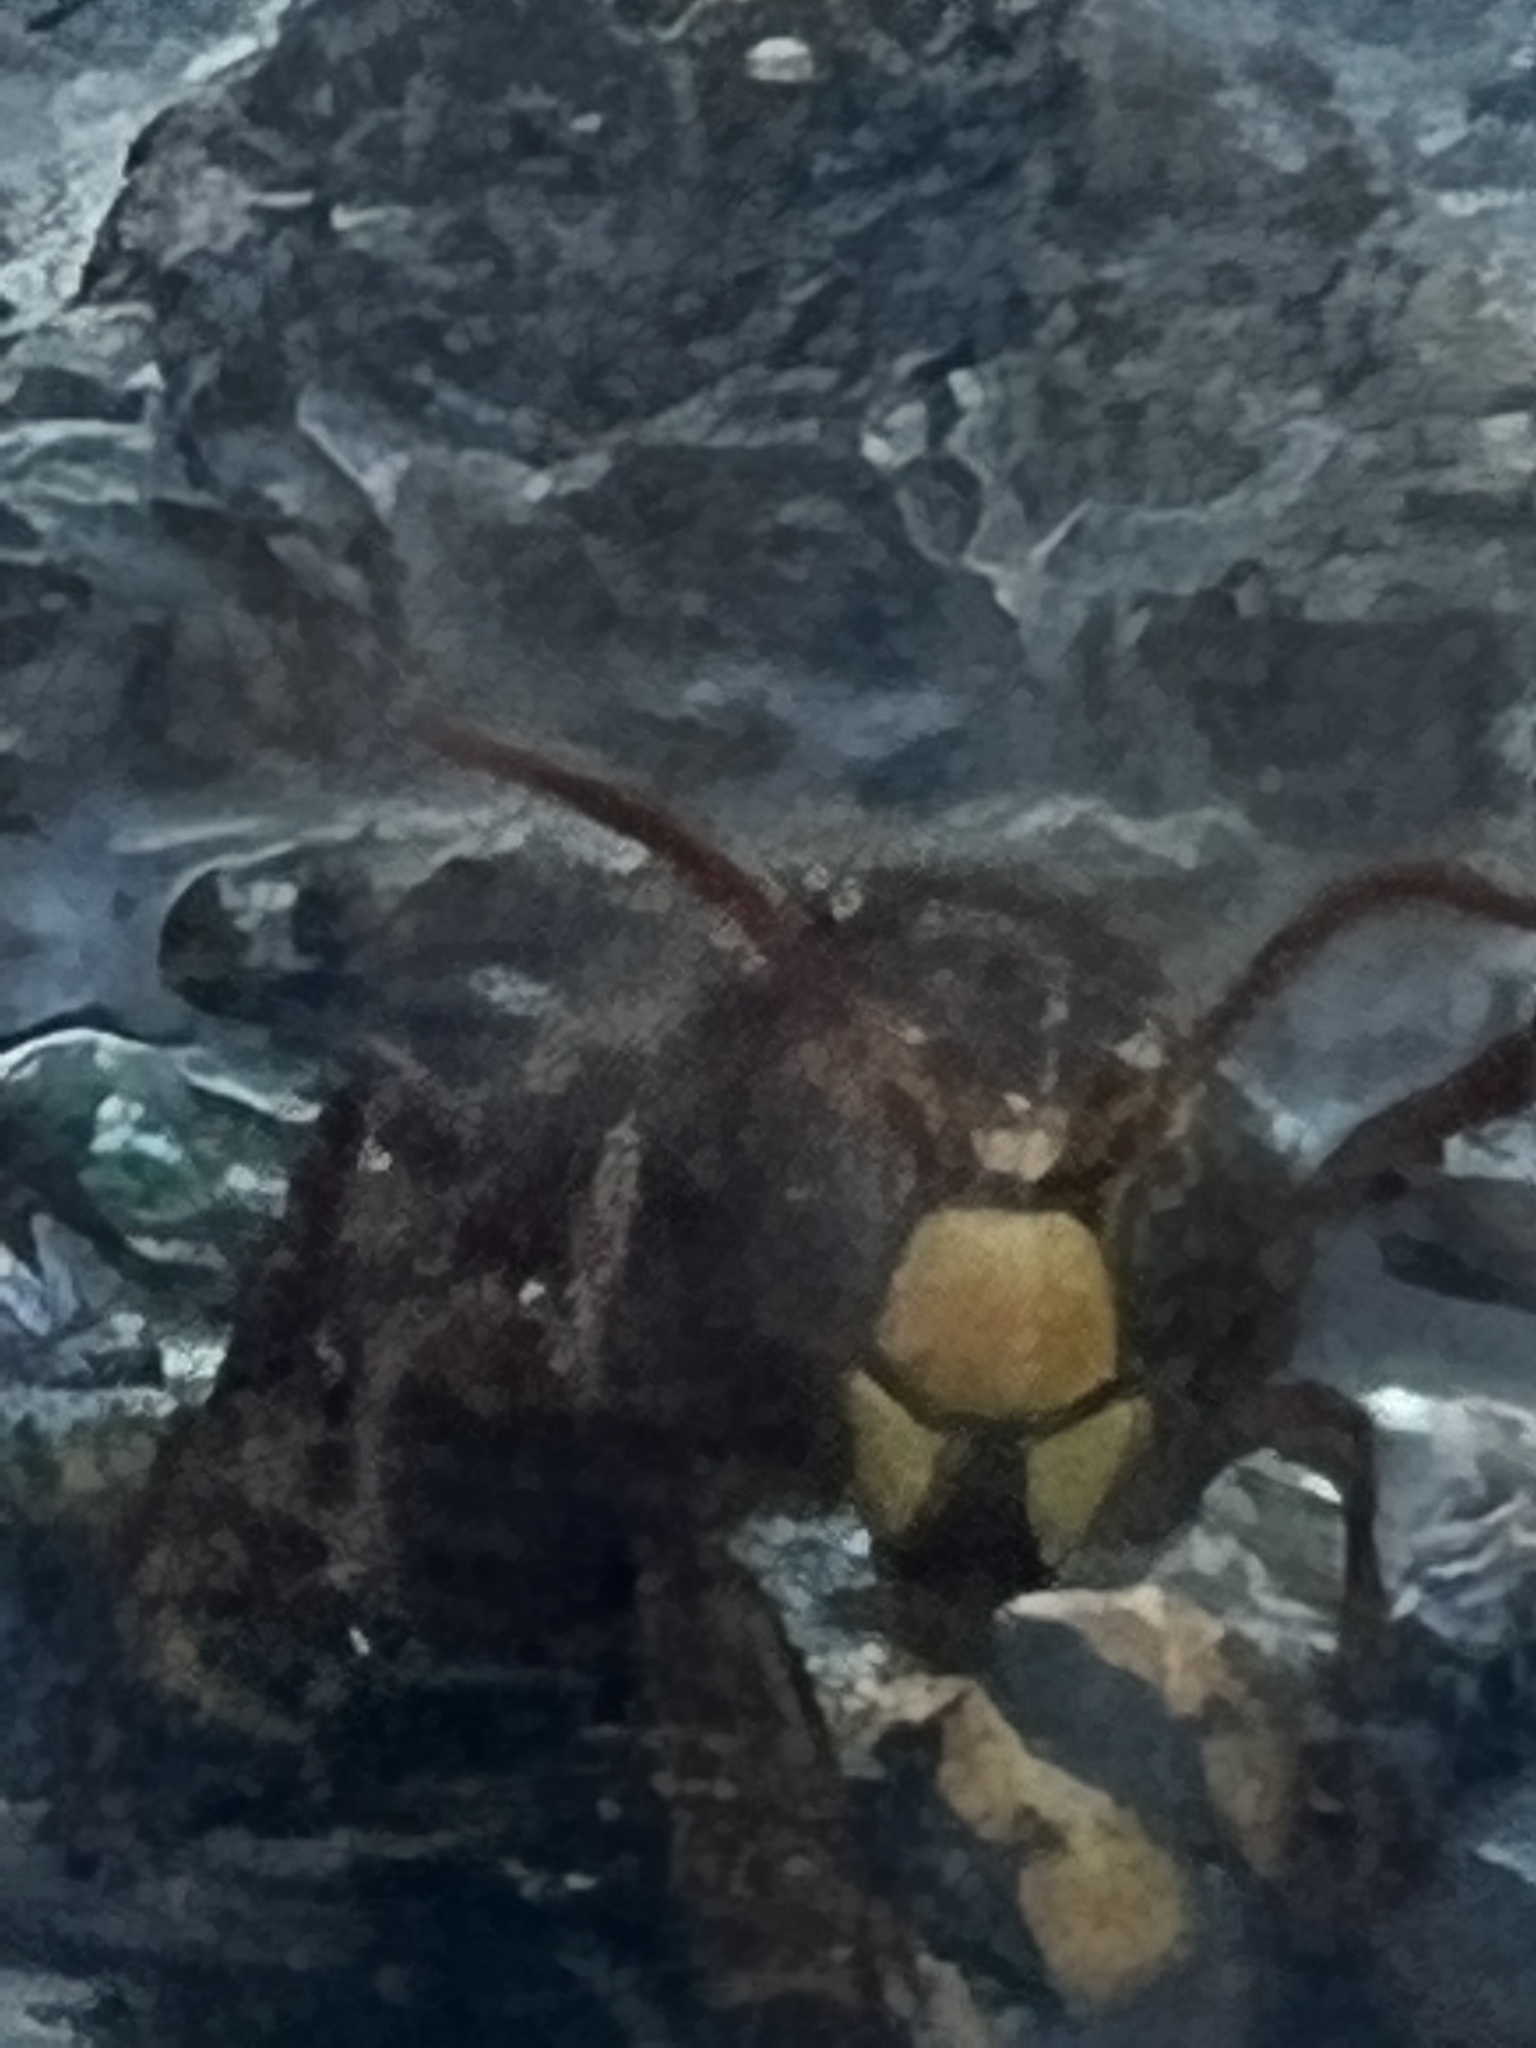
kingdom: Animalia
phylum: Arthropoda
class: Insecta
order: Hymenoptera
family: Vespidae
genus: Vespa
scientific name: Vespa crabro
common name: Hornet
